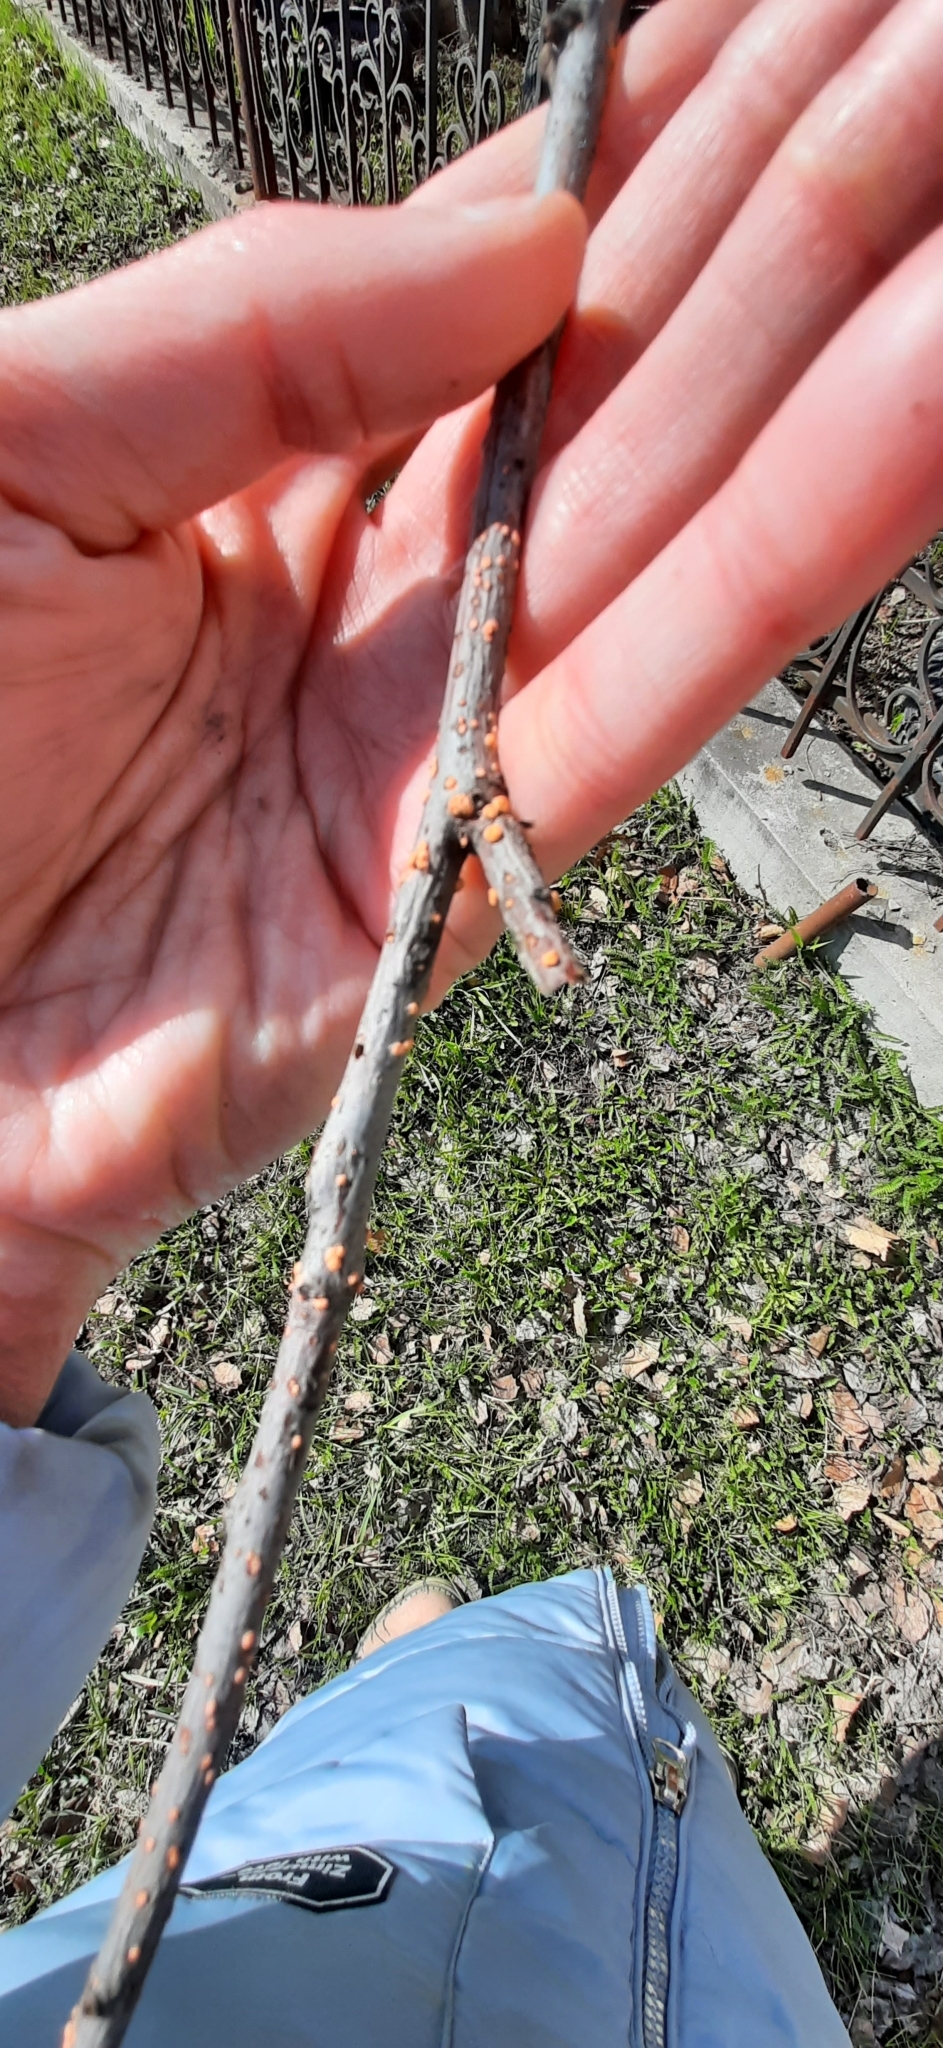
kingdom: Fungi
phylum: Ascomycota
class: Sordariomycetes
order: Hypocreales
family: Nectriaceae
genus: Nectria
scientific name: Nectria cinnabarina
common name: Coral spot
